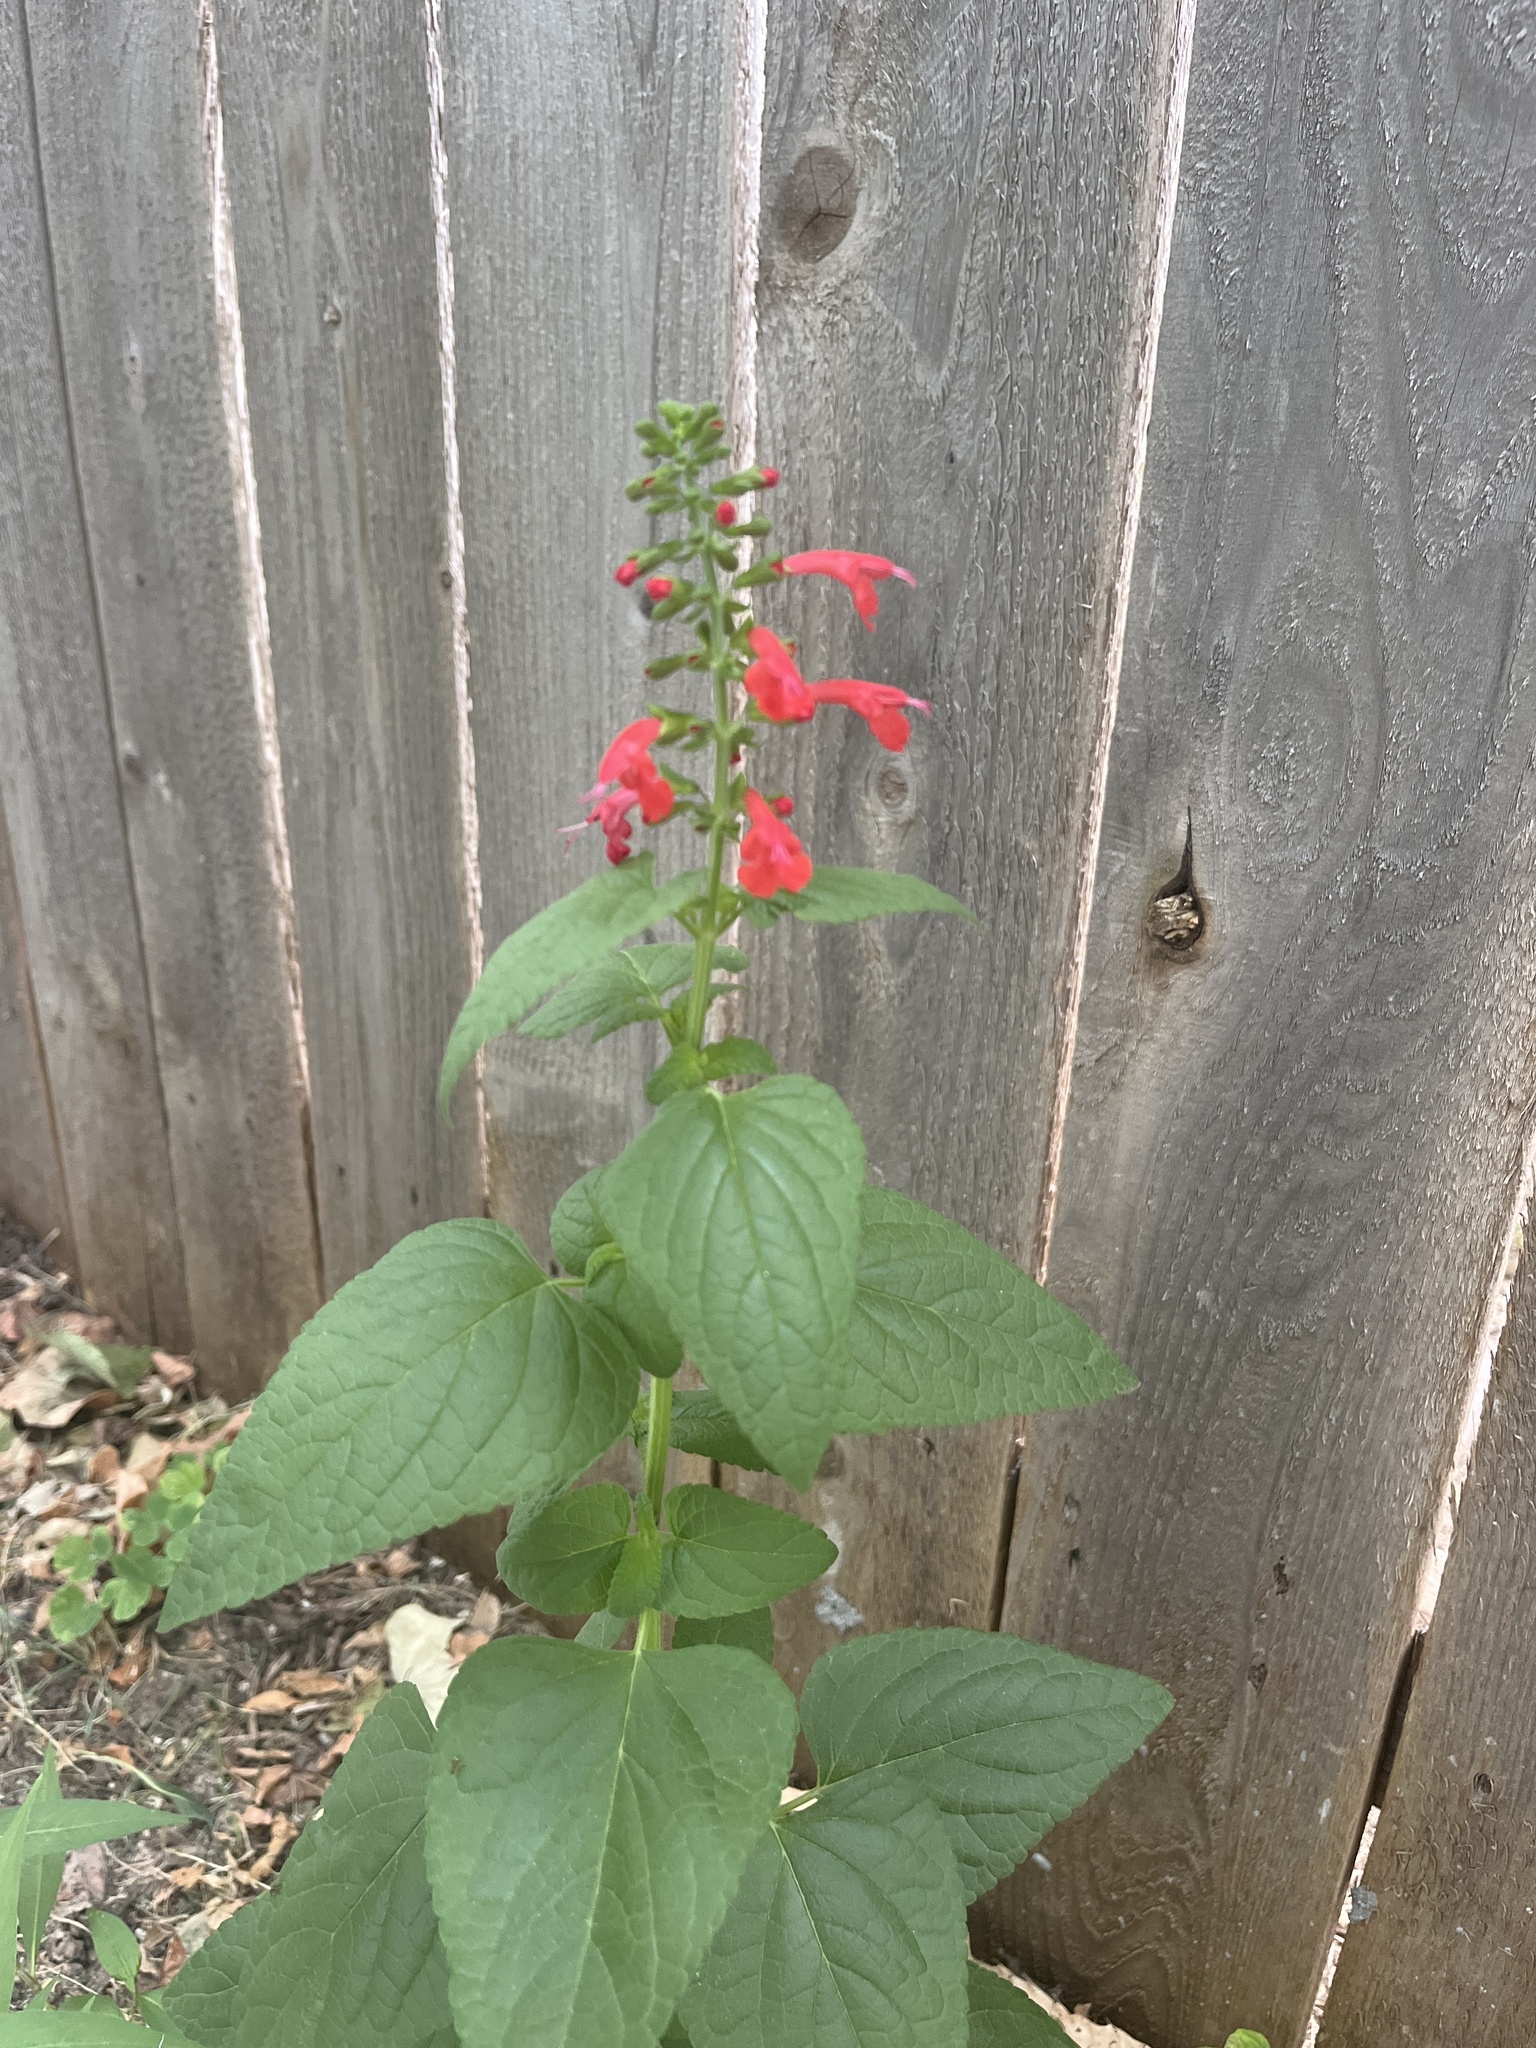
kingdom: Plantae
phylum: Tracheophyta
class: Magnoliopsida
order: Lamiales
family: Lamiaceae
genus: Salvia
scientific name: Salvia coccinea
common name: Blood sage
